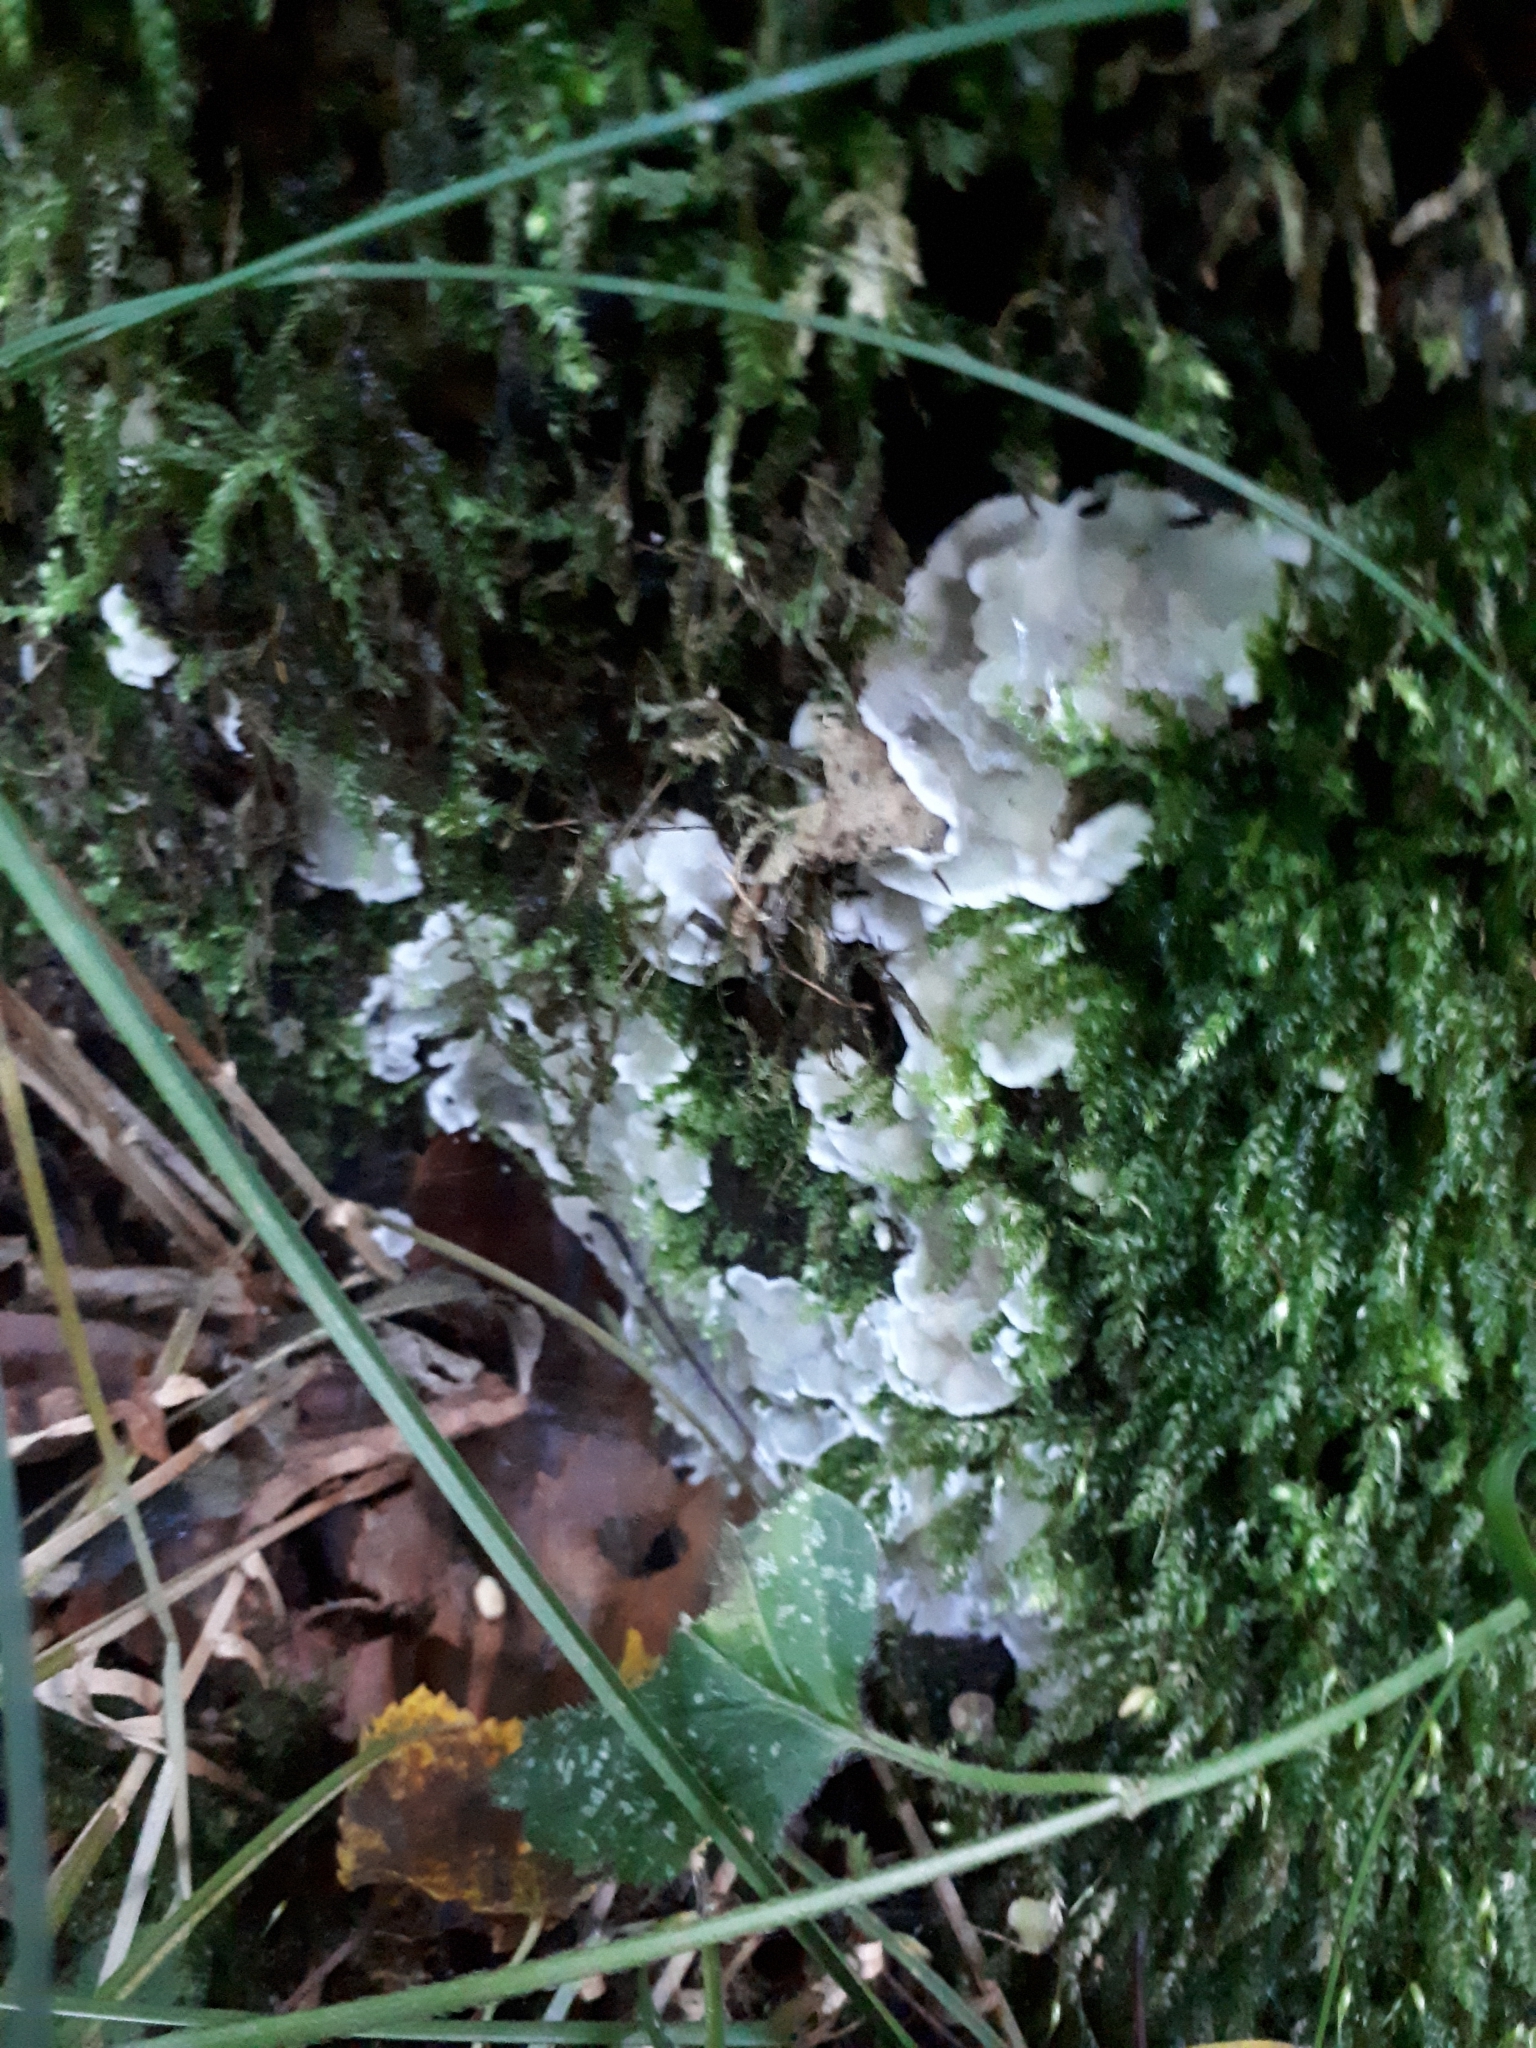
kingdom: Fungi
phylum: Ascomycota
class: Sordariomycetes
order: Xylariales
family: Xylariaceae
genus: Kretzschmaria
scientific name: Kretzschmaria deusta
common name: Brittle cinder
